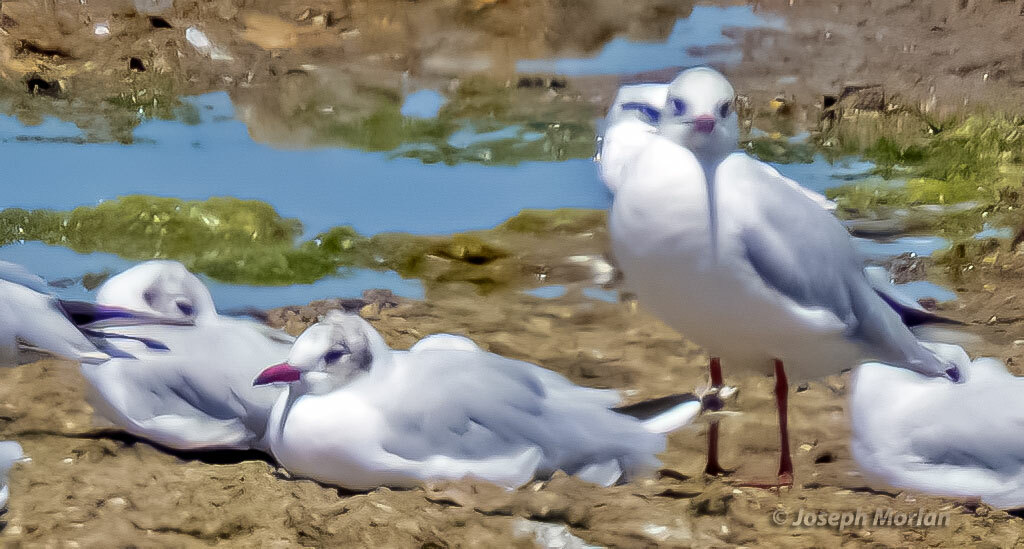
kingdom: Animalia
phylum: Chordata
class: Aves
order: Charadriiformes
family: Laridae
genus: Chroicocephalus
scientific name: Chroicocephalus maculipennis
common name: Brown-hooded gull
